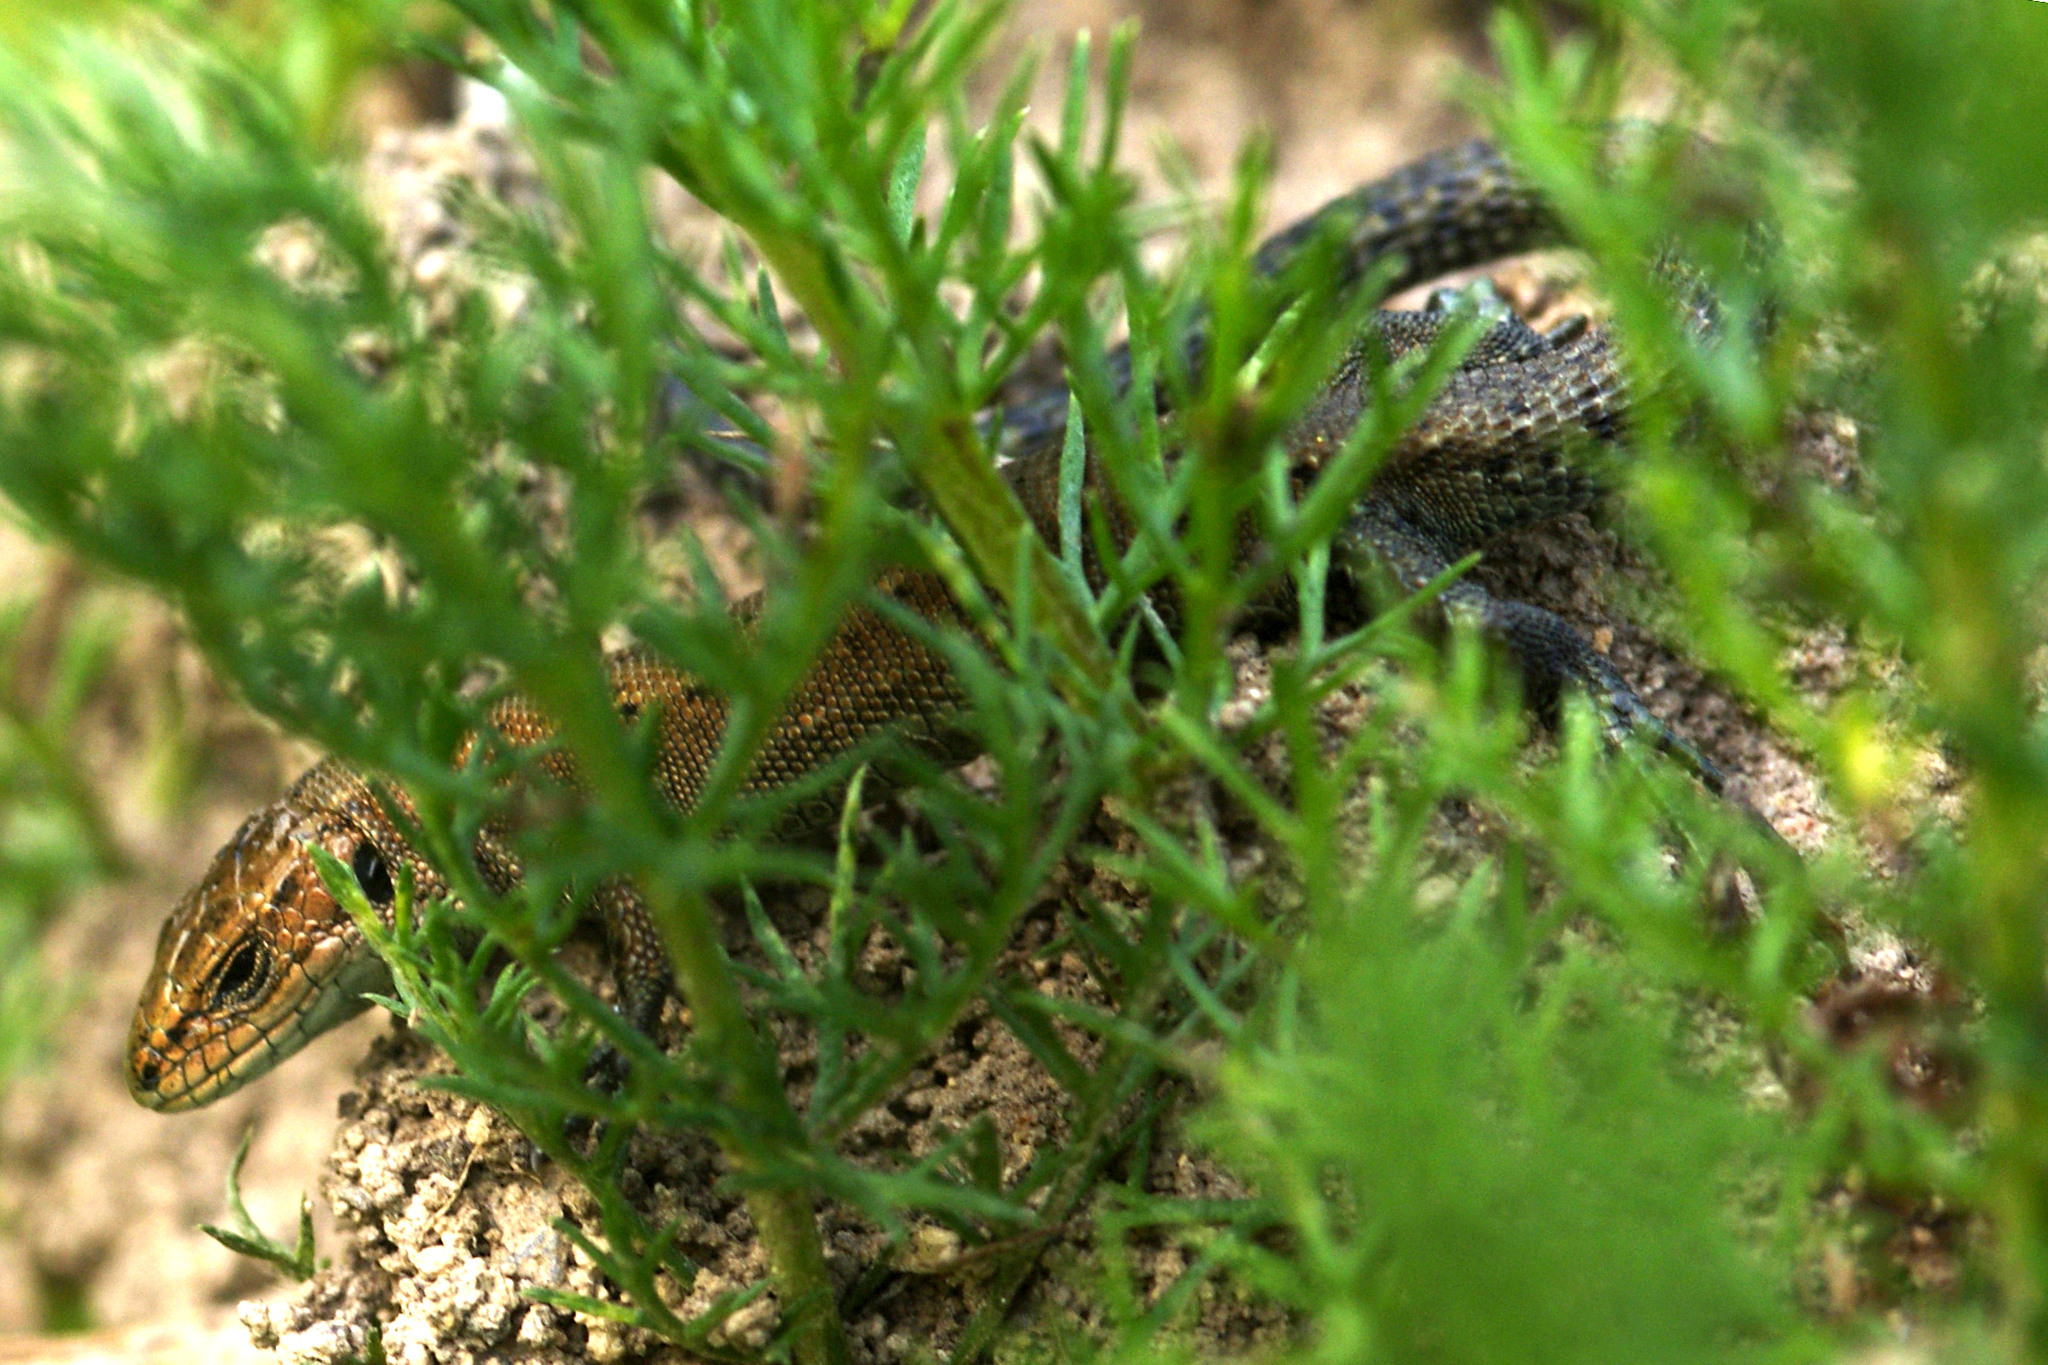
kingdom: Animalia
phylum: Chordata
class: Squamata
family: Lacertidae
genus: Zootoca
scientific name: Zootoca vivipara
